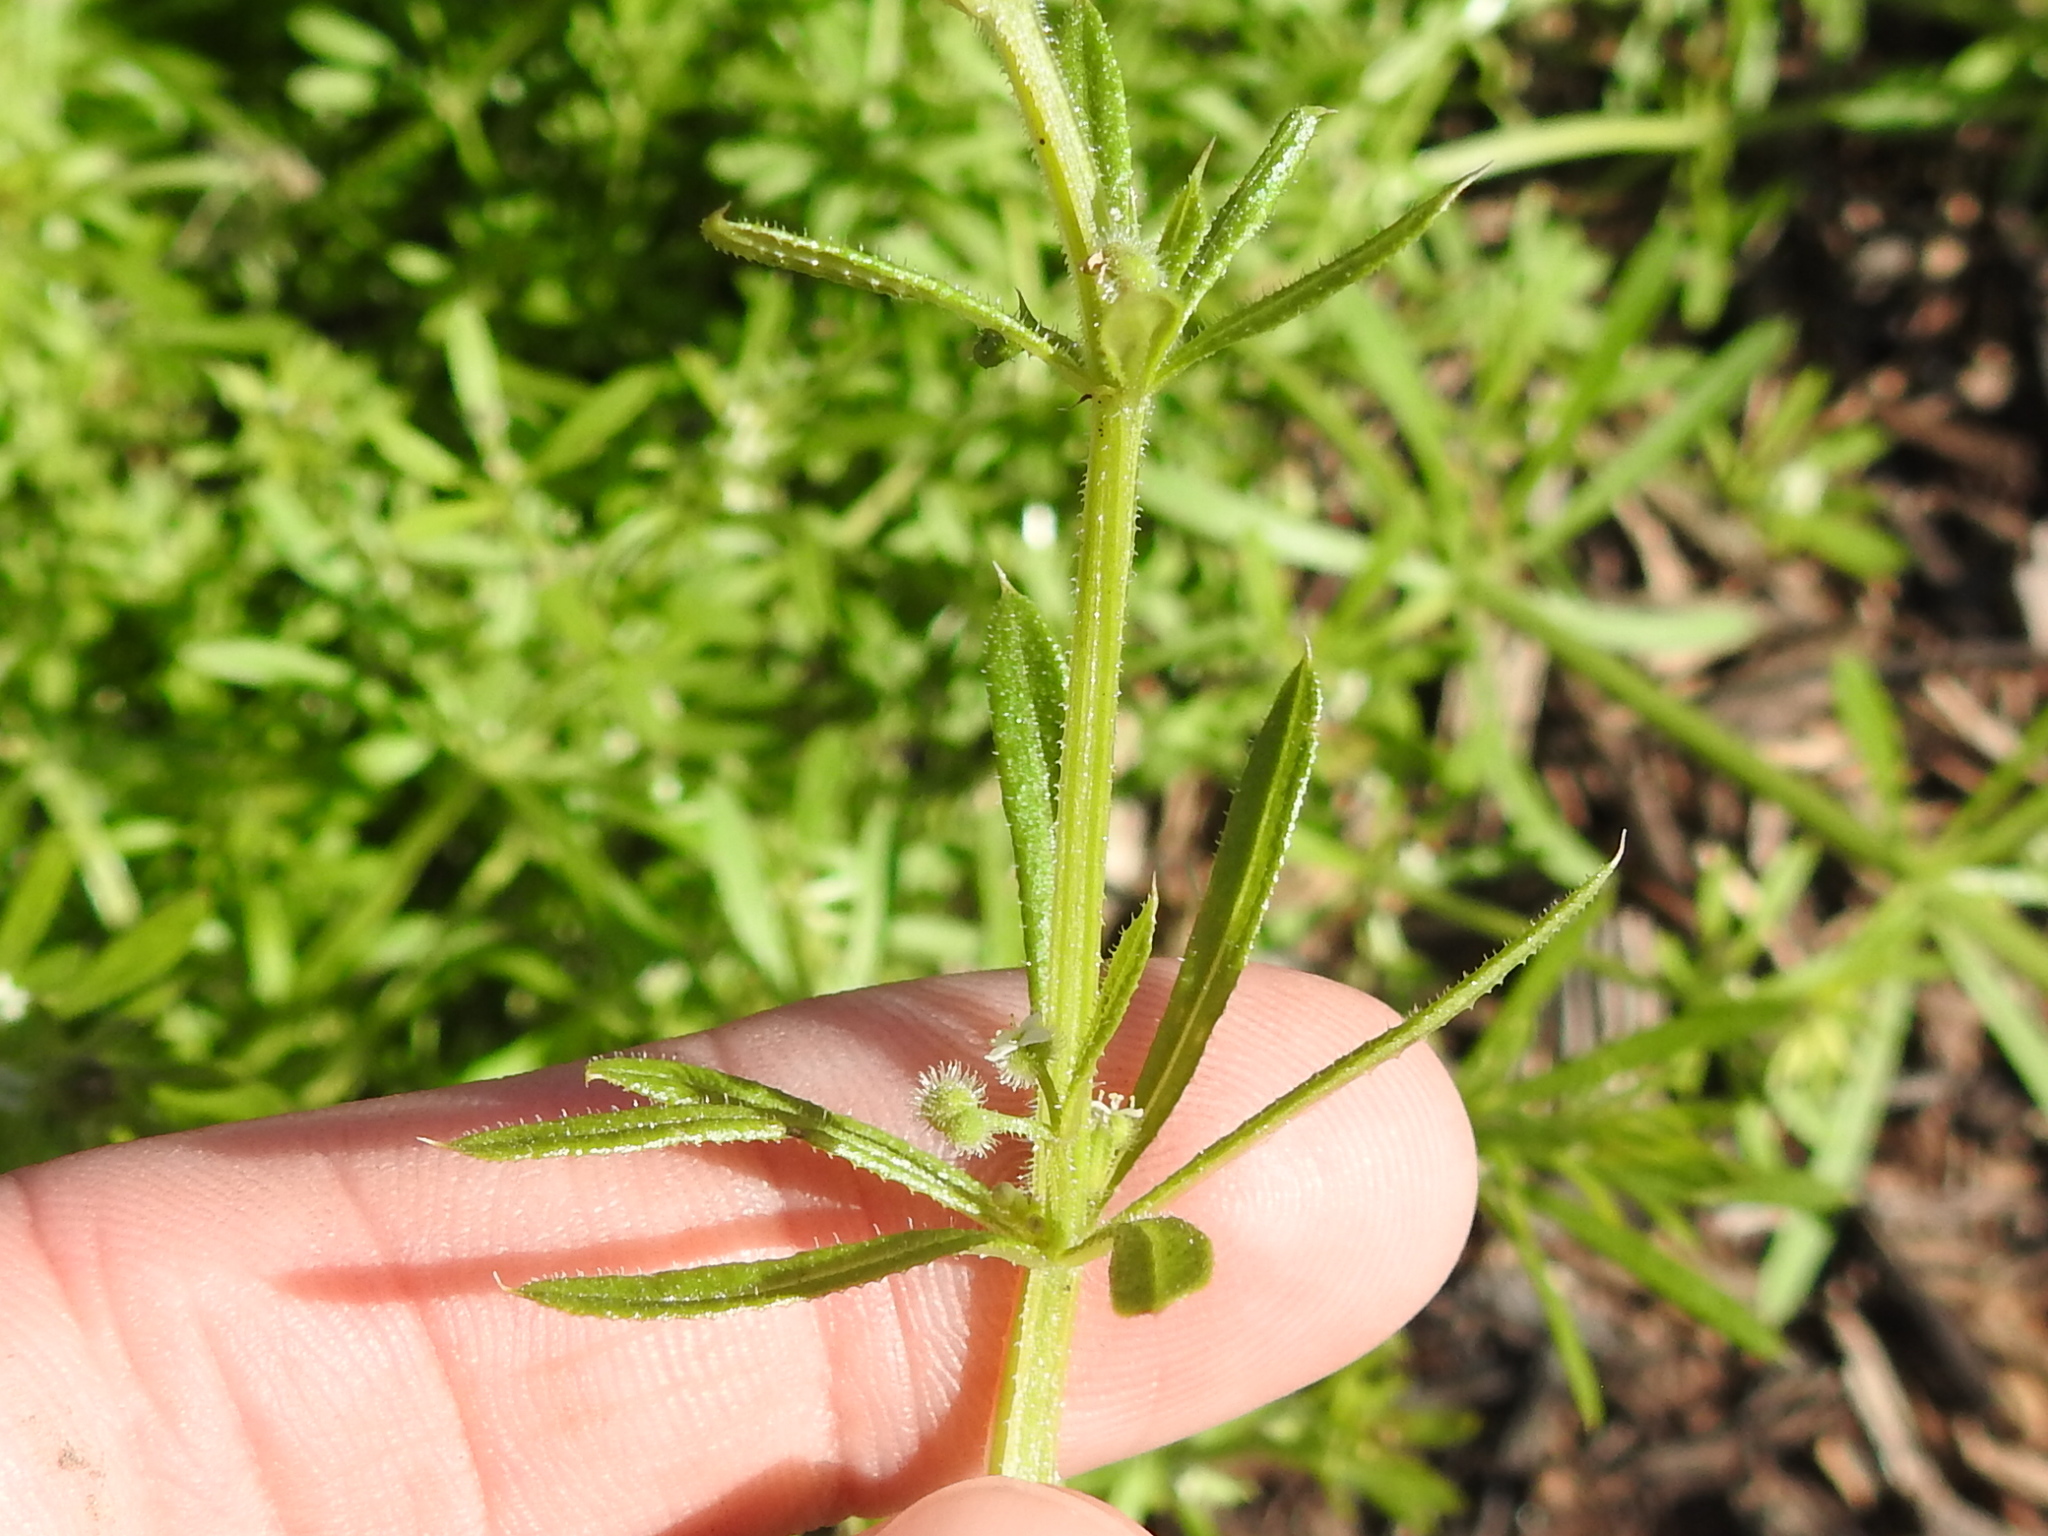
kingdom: Plantae
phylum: Tracheophyta
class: Magnoliopsida
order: Gentianales
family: Rubiaceae
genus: Galium
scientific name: Galium aparine
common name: Cleavers
